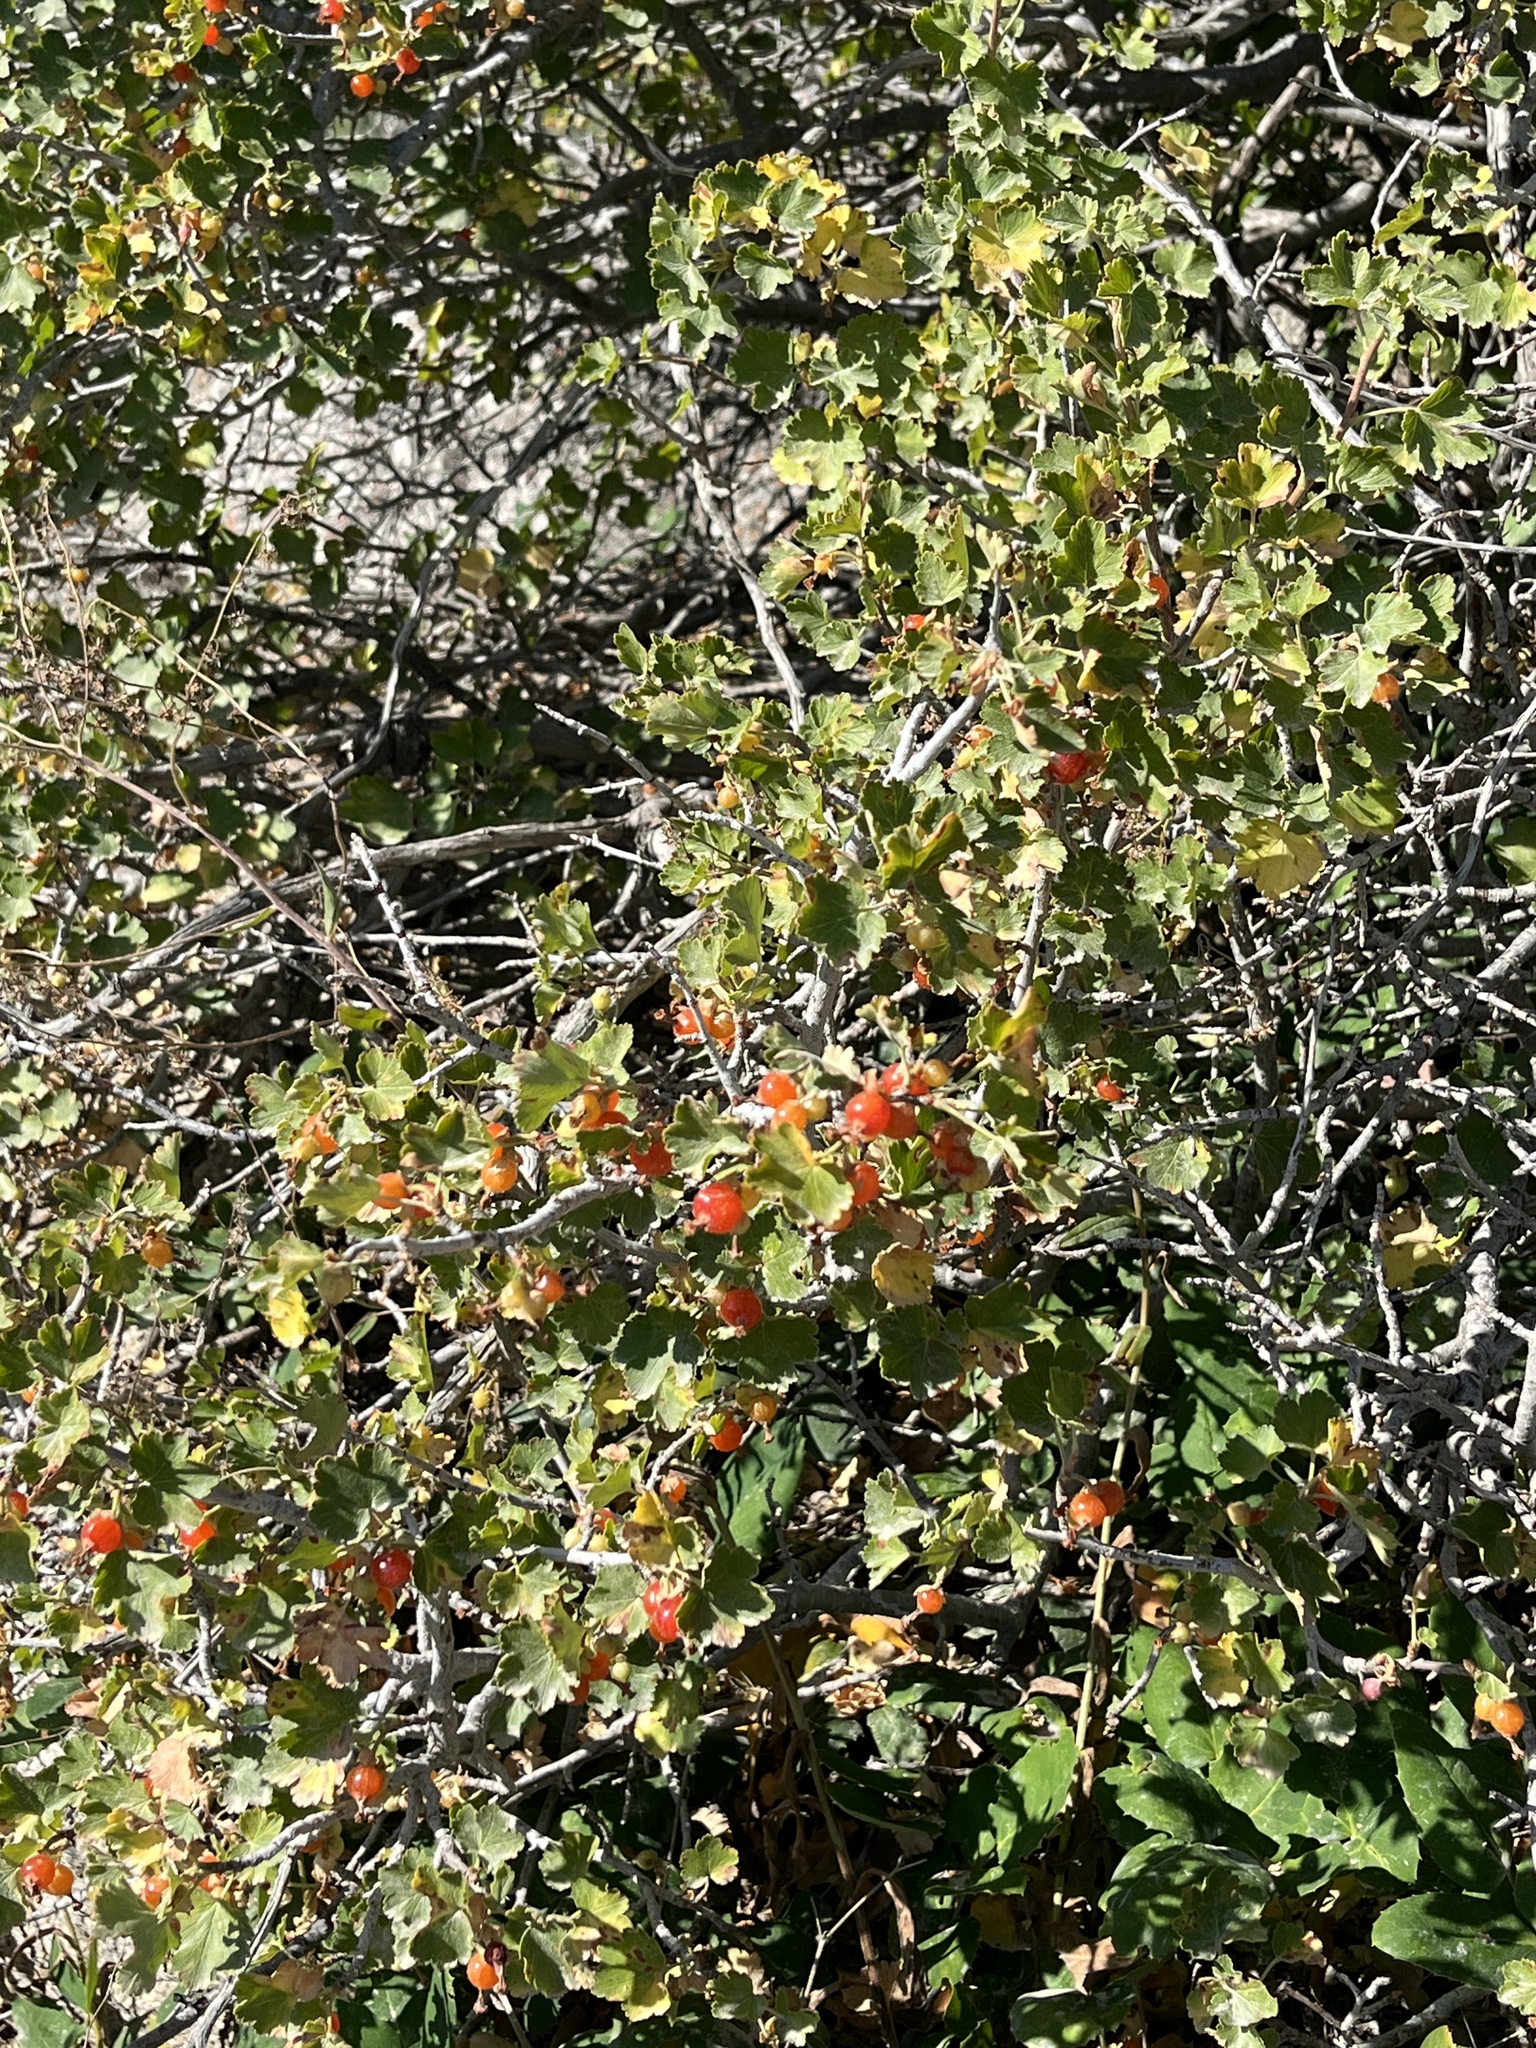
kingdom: Plantae
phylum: Tracheophyta
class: Magnoliopsida
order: Saxifragales
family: Grossulariaceae
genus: Ribes
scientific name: Ribes cereum
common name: Wax currant
